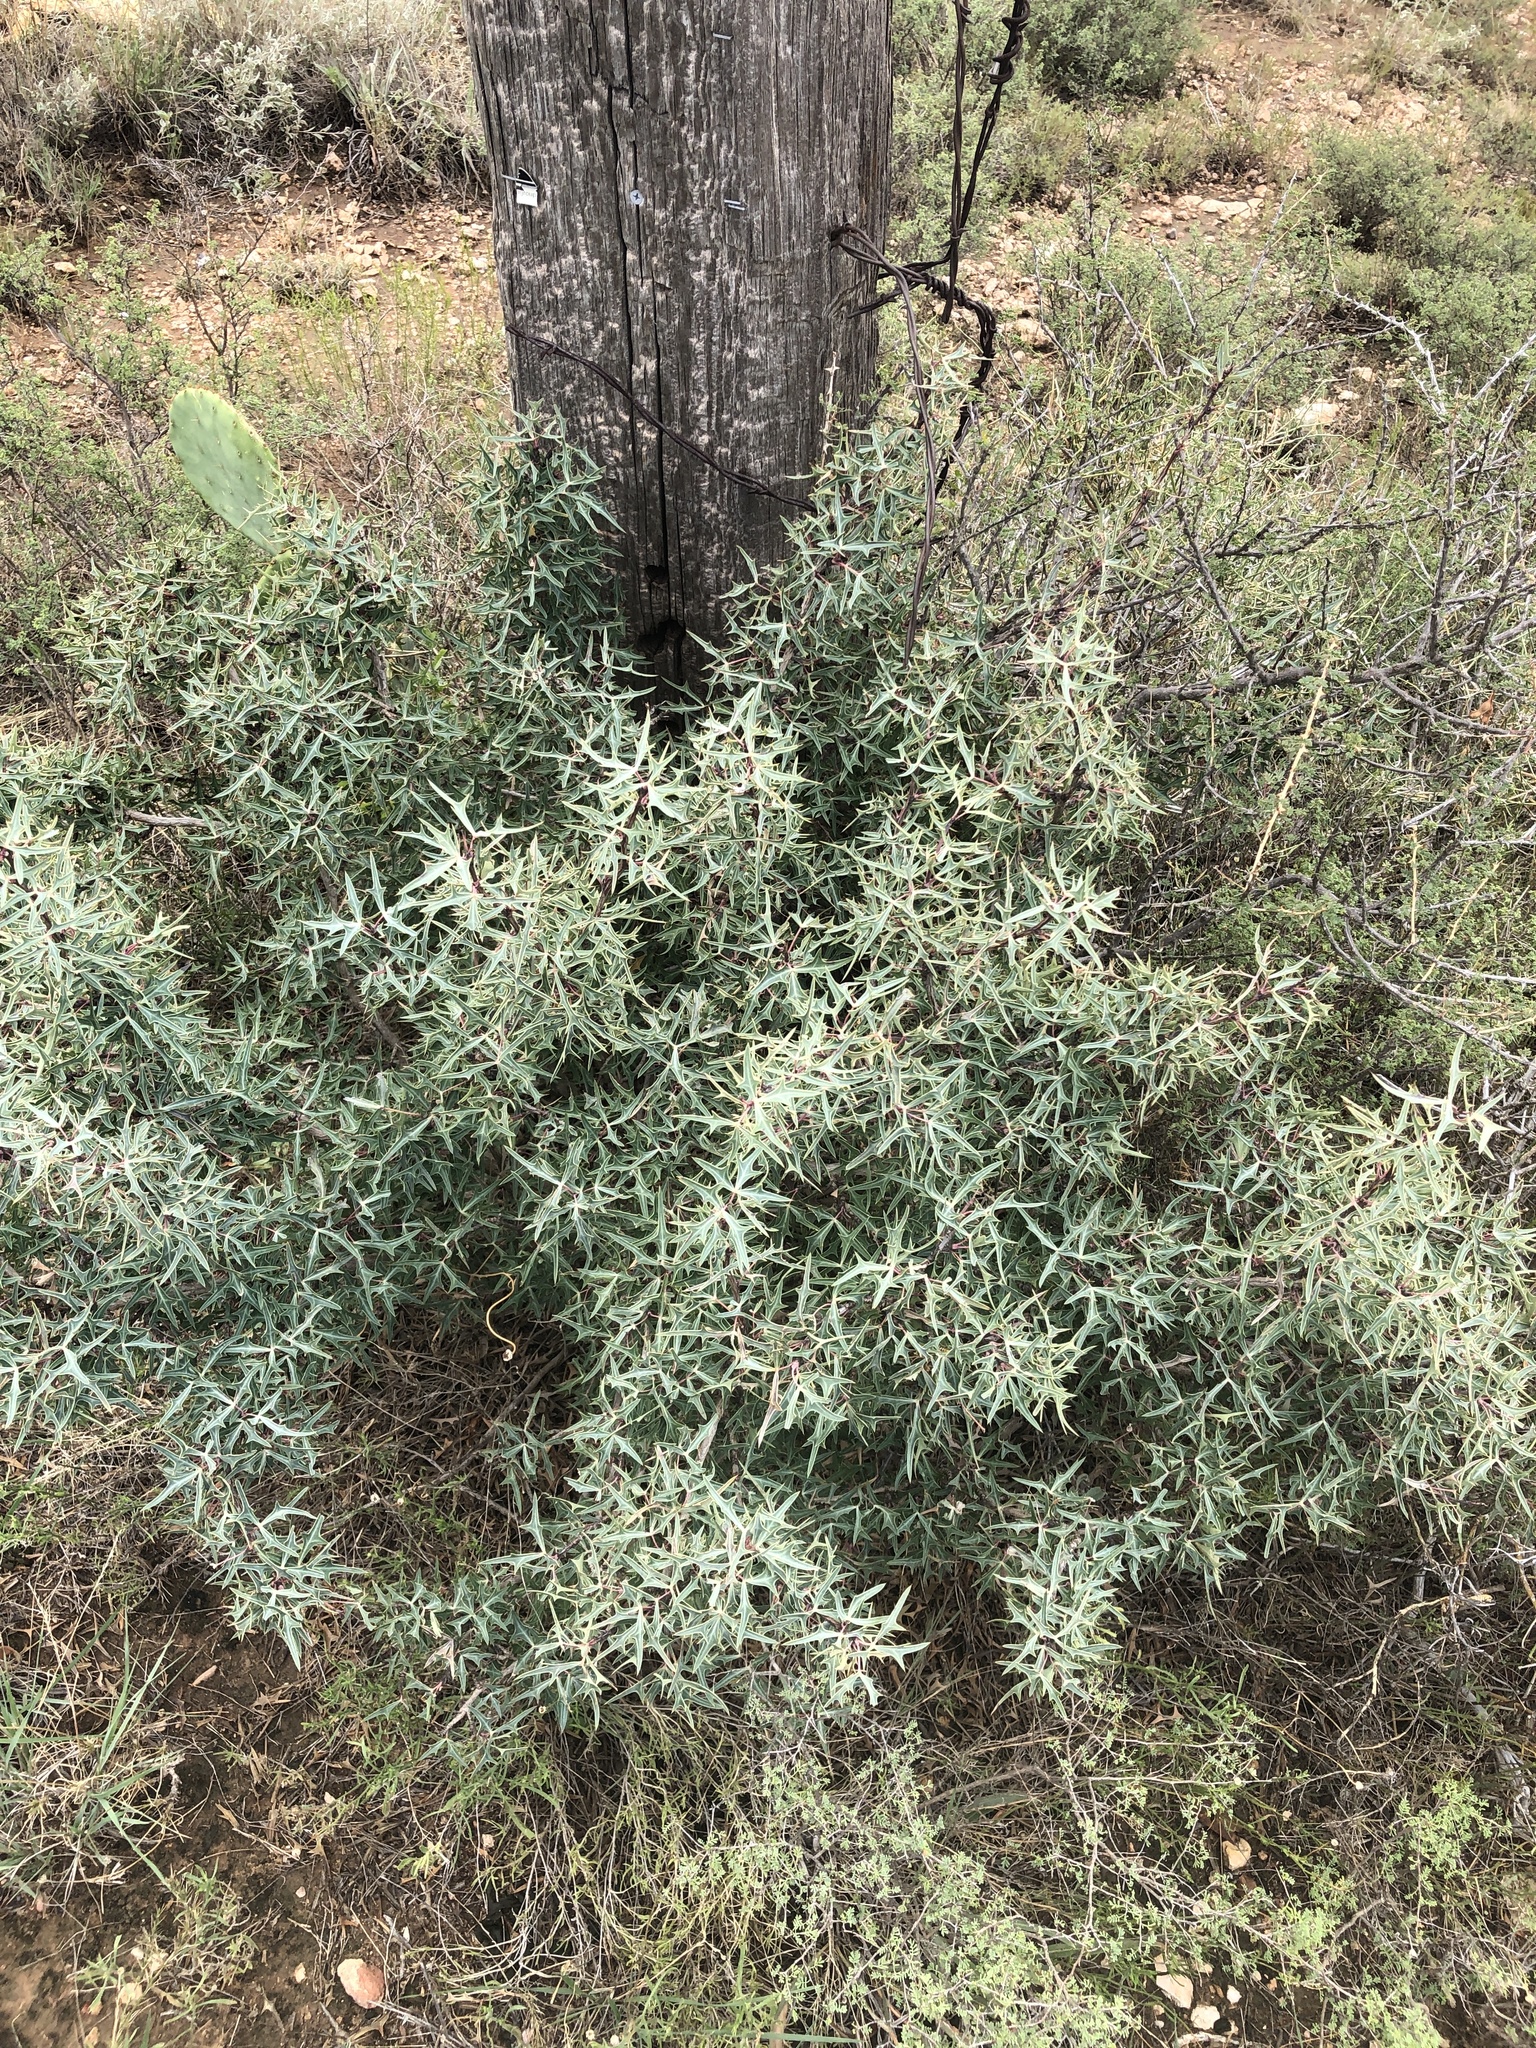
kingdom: Plantae
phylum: Tracheophyta
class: Magnoliopsida
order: Ranunculales
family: Berberidaceae
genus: Alloberberis
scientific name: Alloberberis trifoliolata
